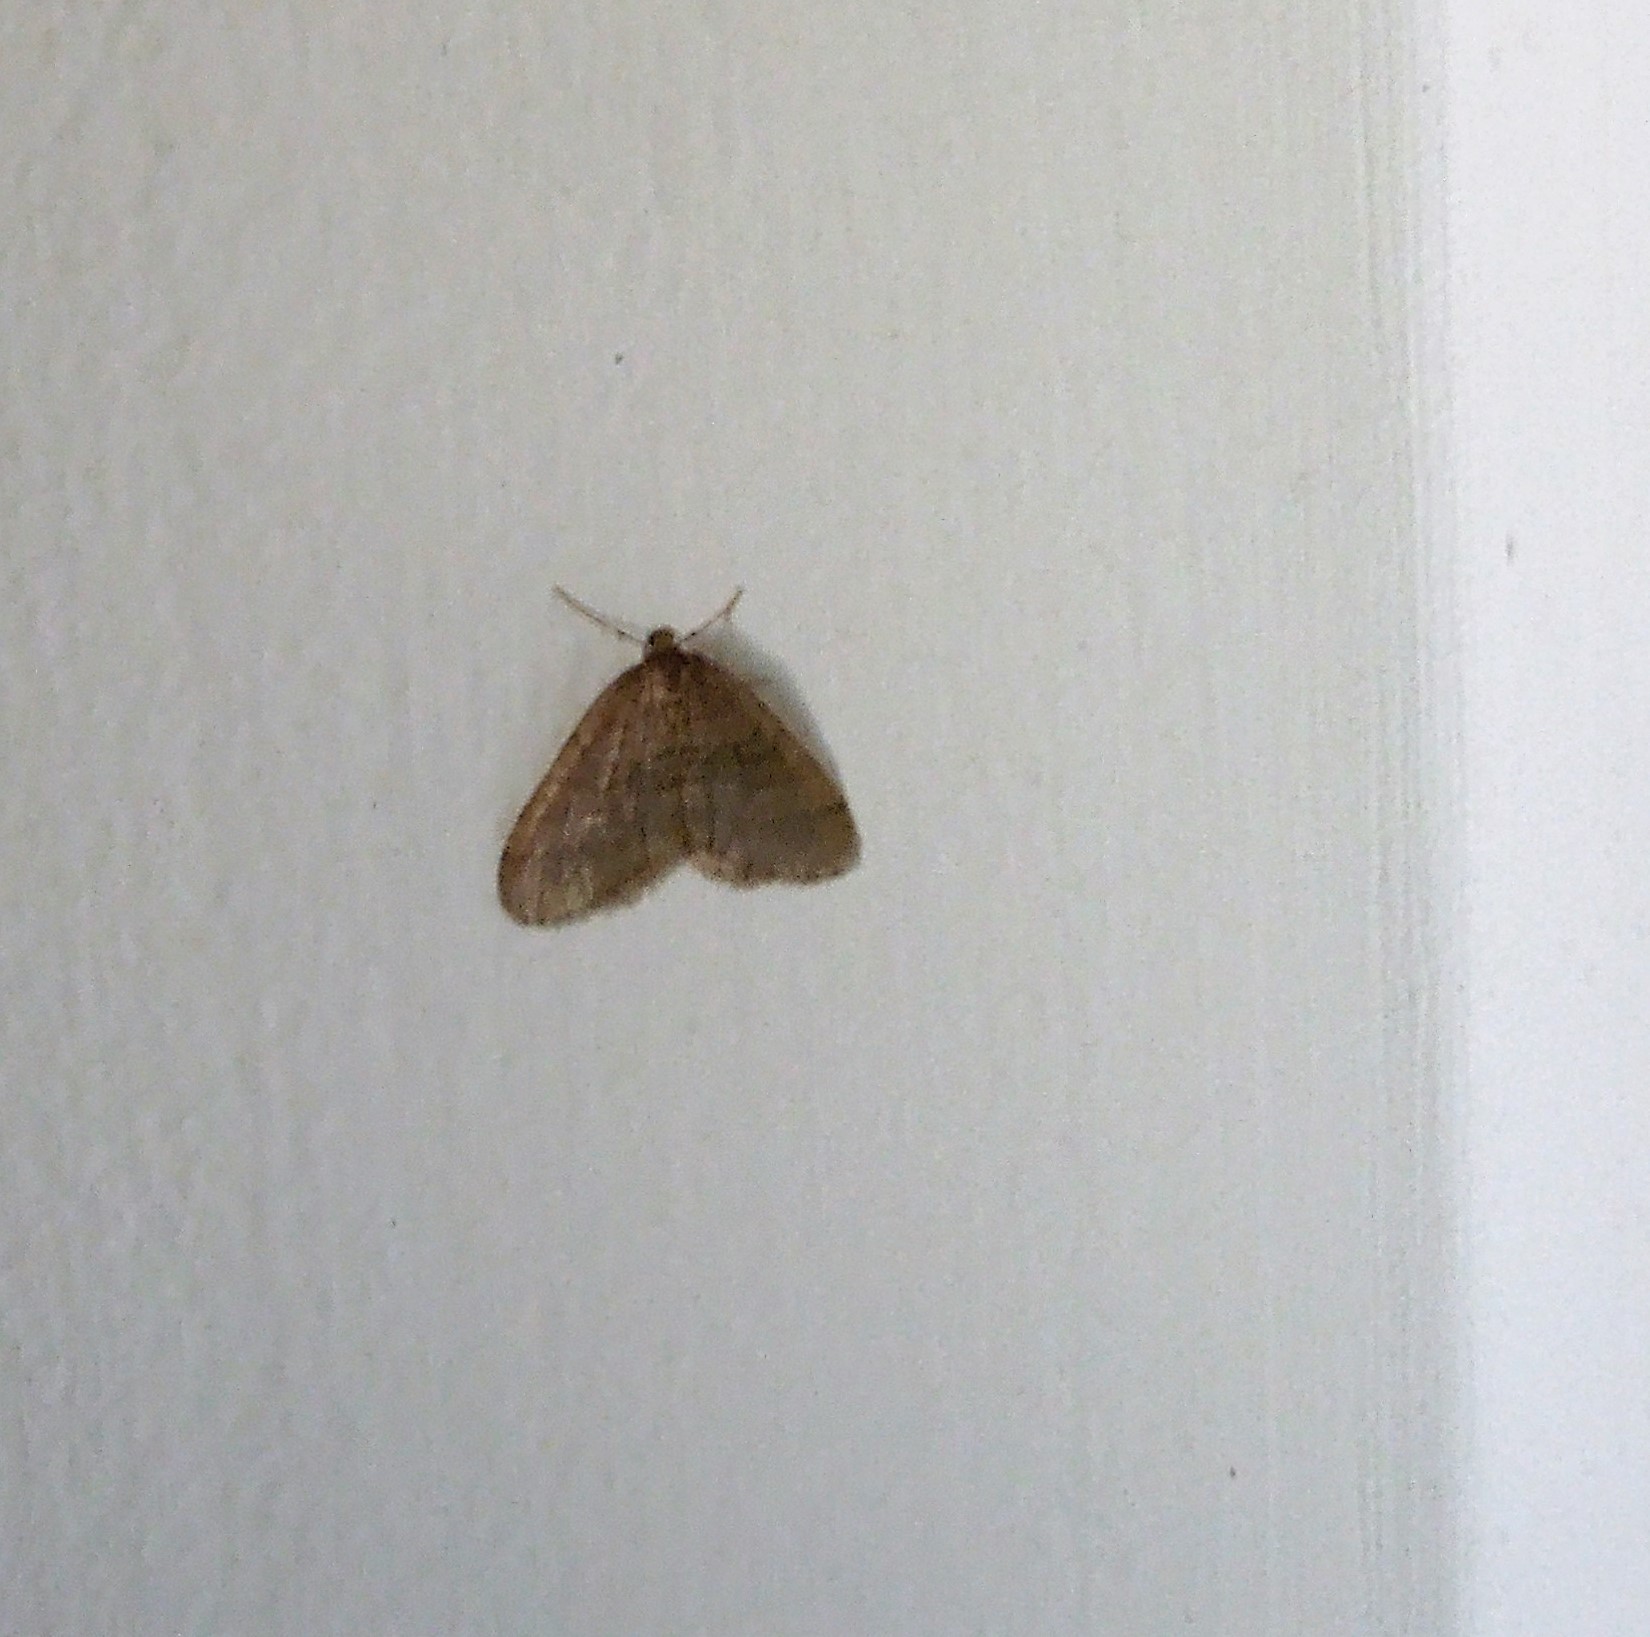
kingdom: Animalia
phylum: Arthropoda
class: Insecta
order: Lepidoptera
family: Geometridae
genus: Operophtera
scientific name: Operophtera
